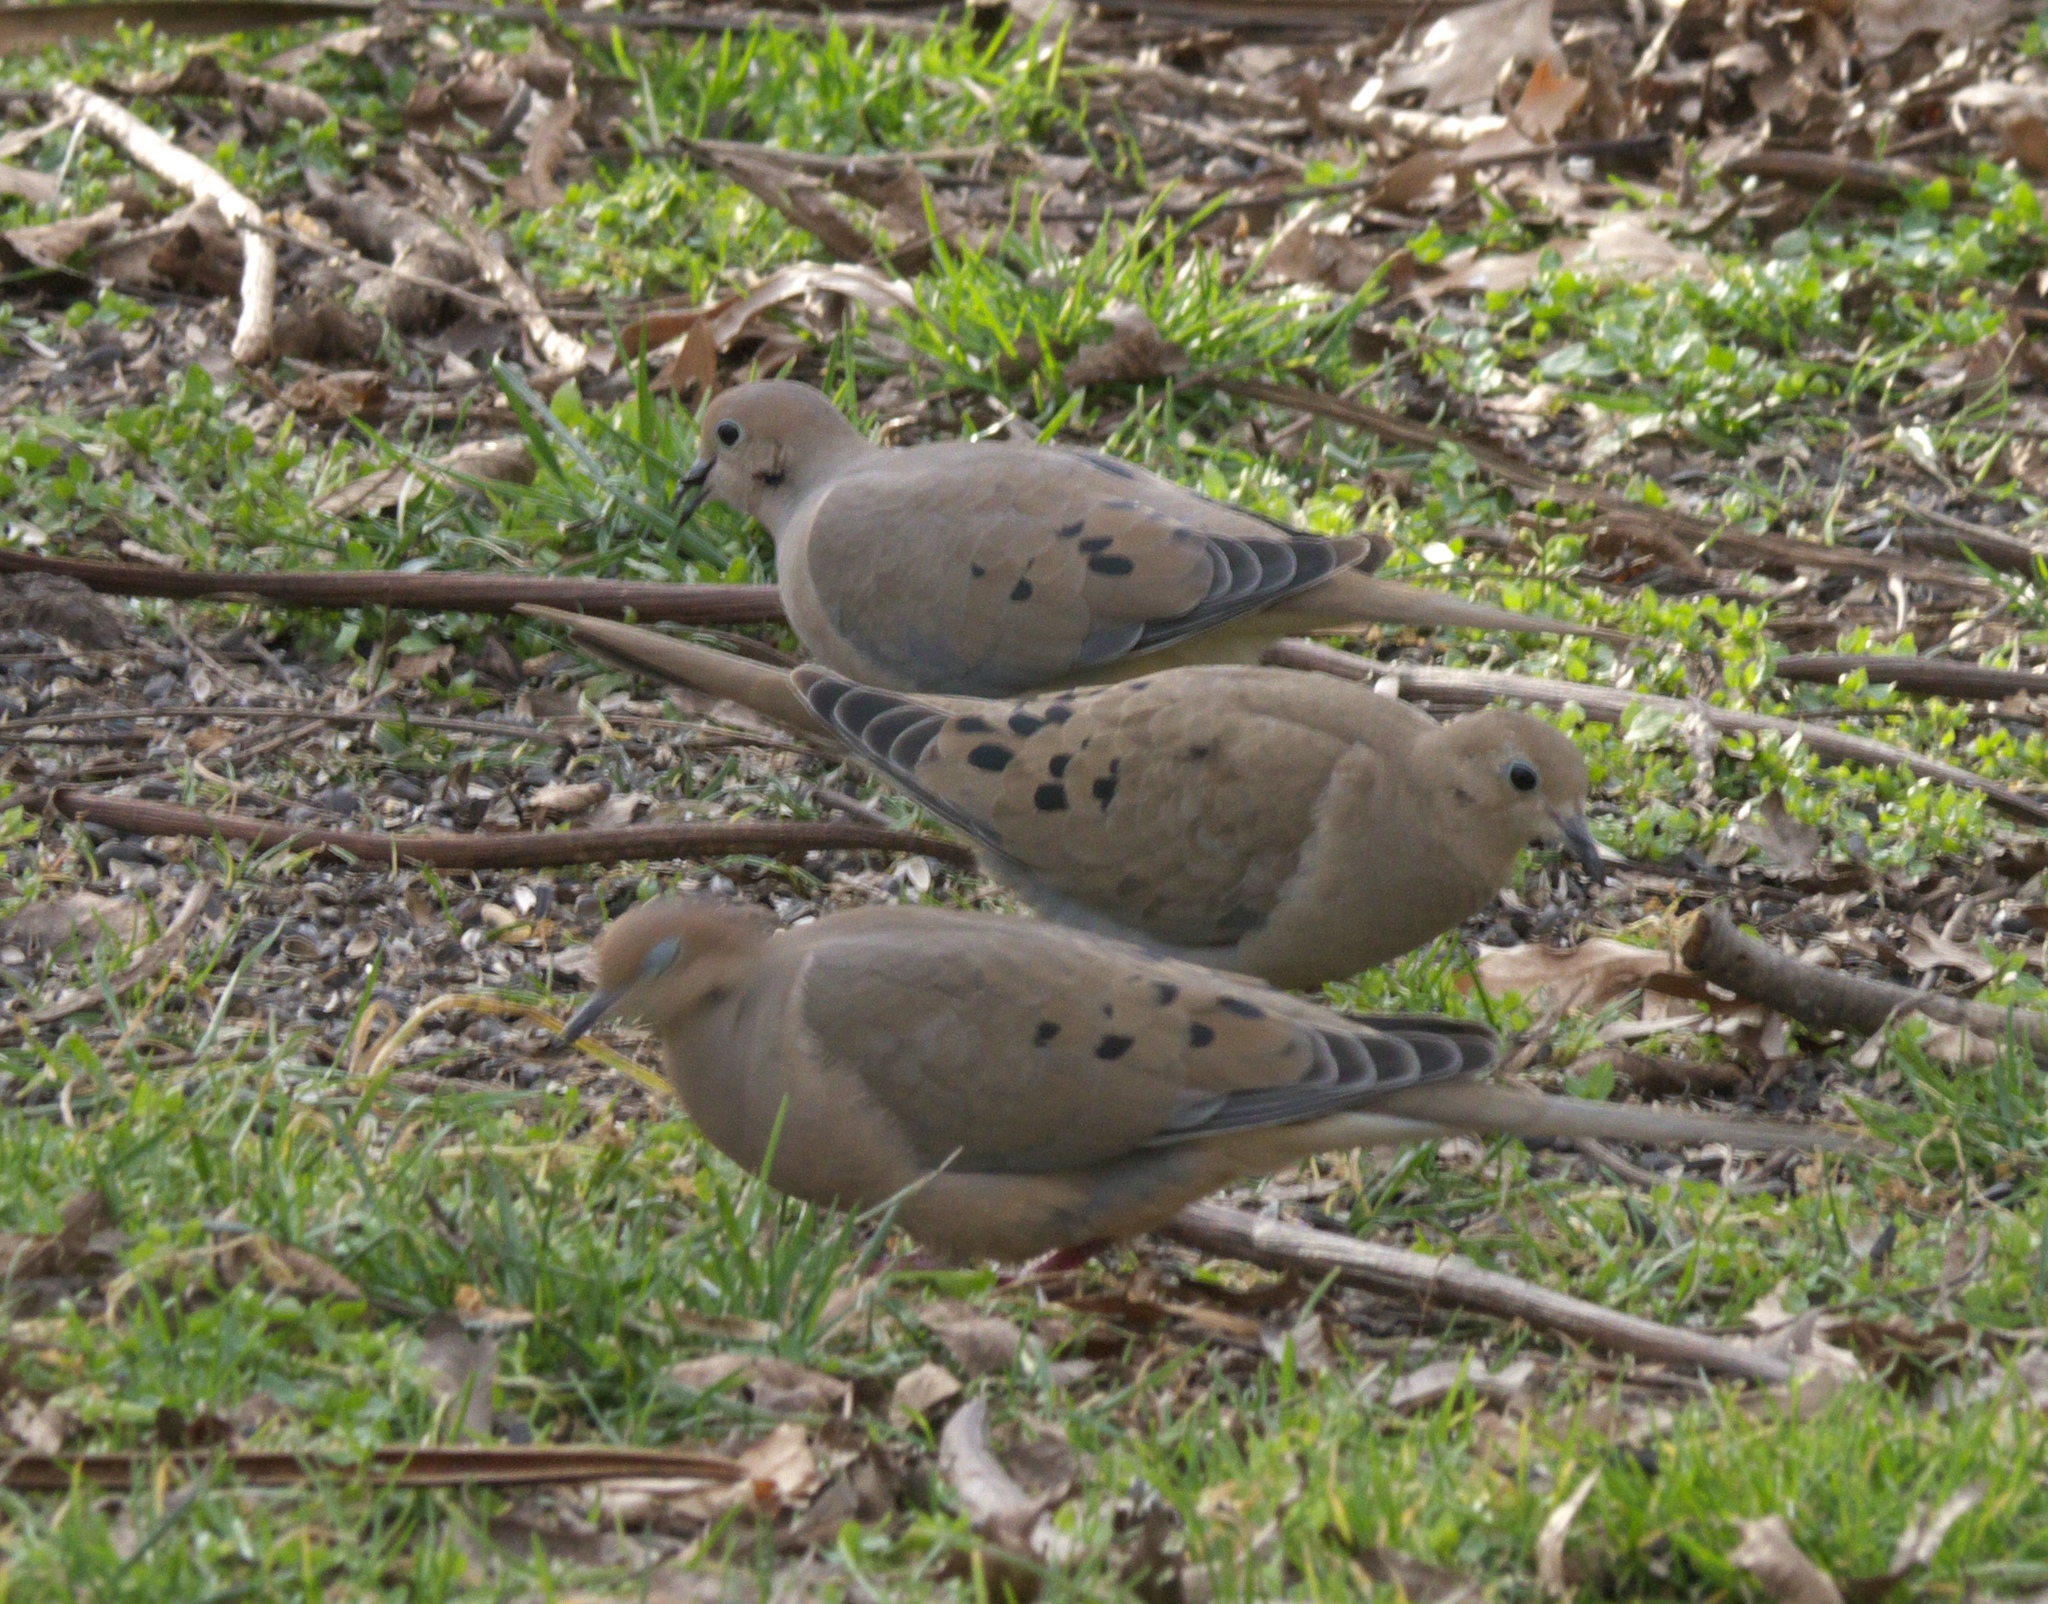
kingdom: Animalia
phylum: Chordata
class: Aves
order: Columbiformes
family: Columbidae
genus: Zenaida
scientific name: Zenaida macroura
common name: Mourning dove
